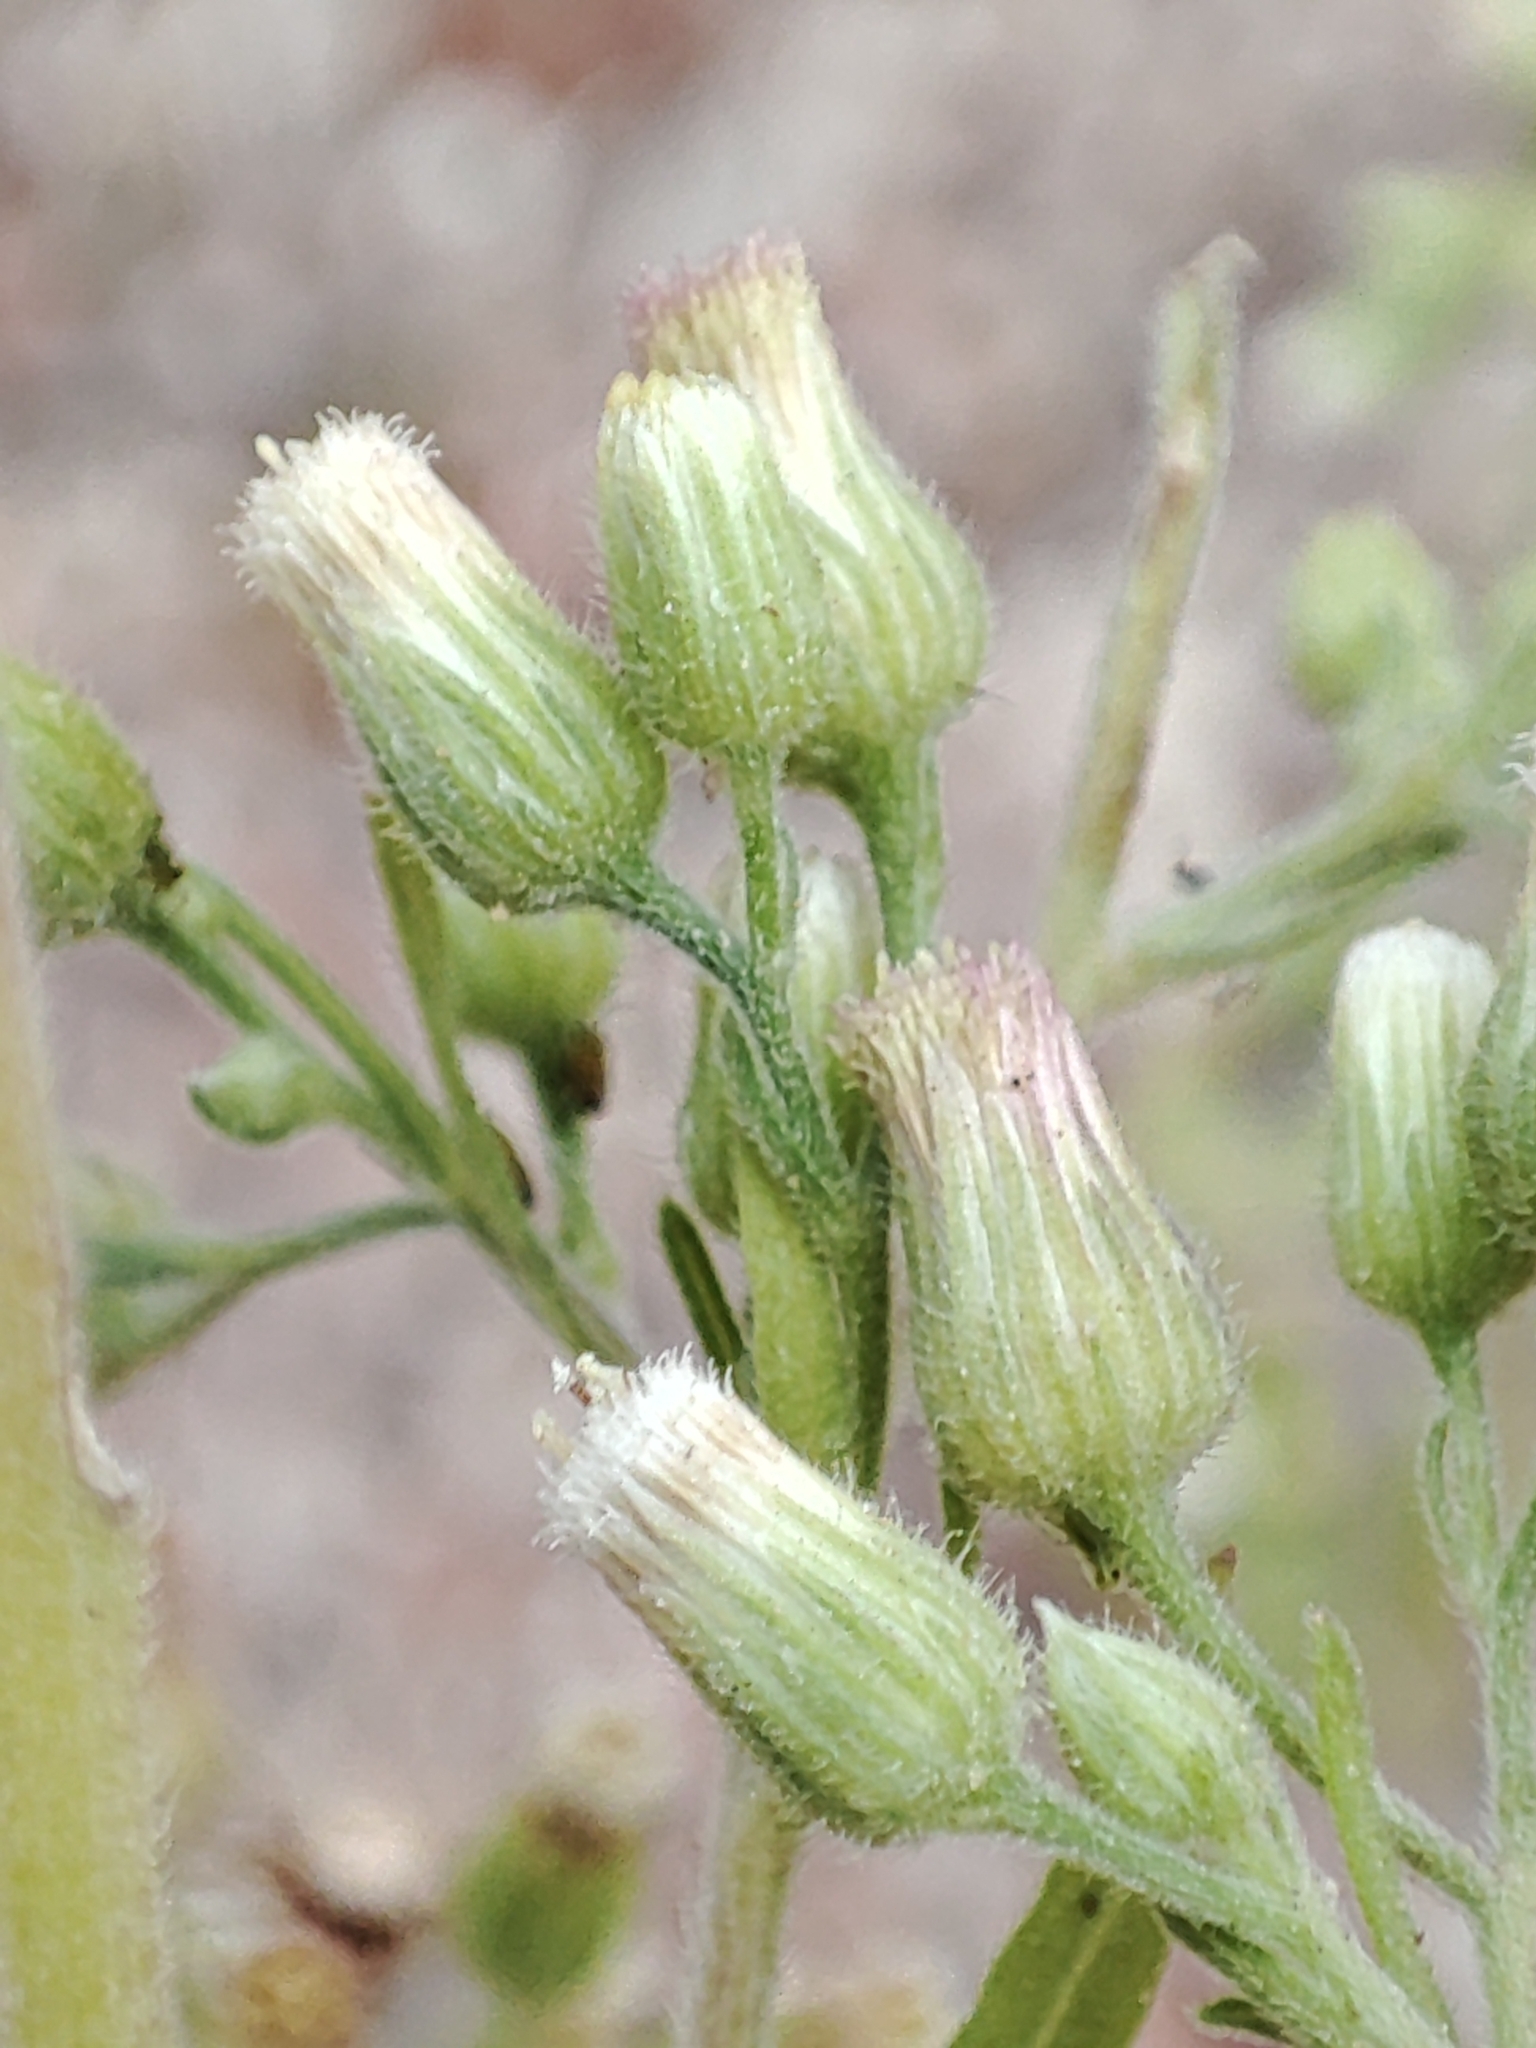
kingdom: Plantae
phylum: Tracheophyta
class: Magnoliopsida
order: Asterales
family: Asteraceae
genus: Erigeron
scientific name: Erigeron bonariensis
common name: Argentine fleabane
